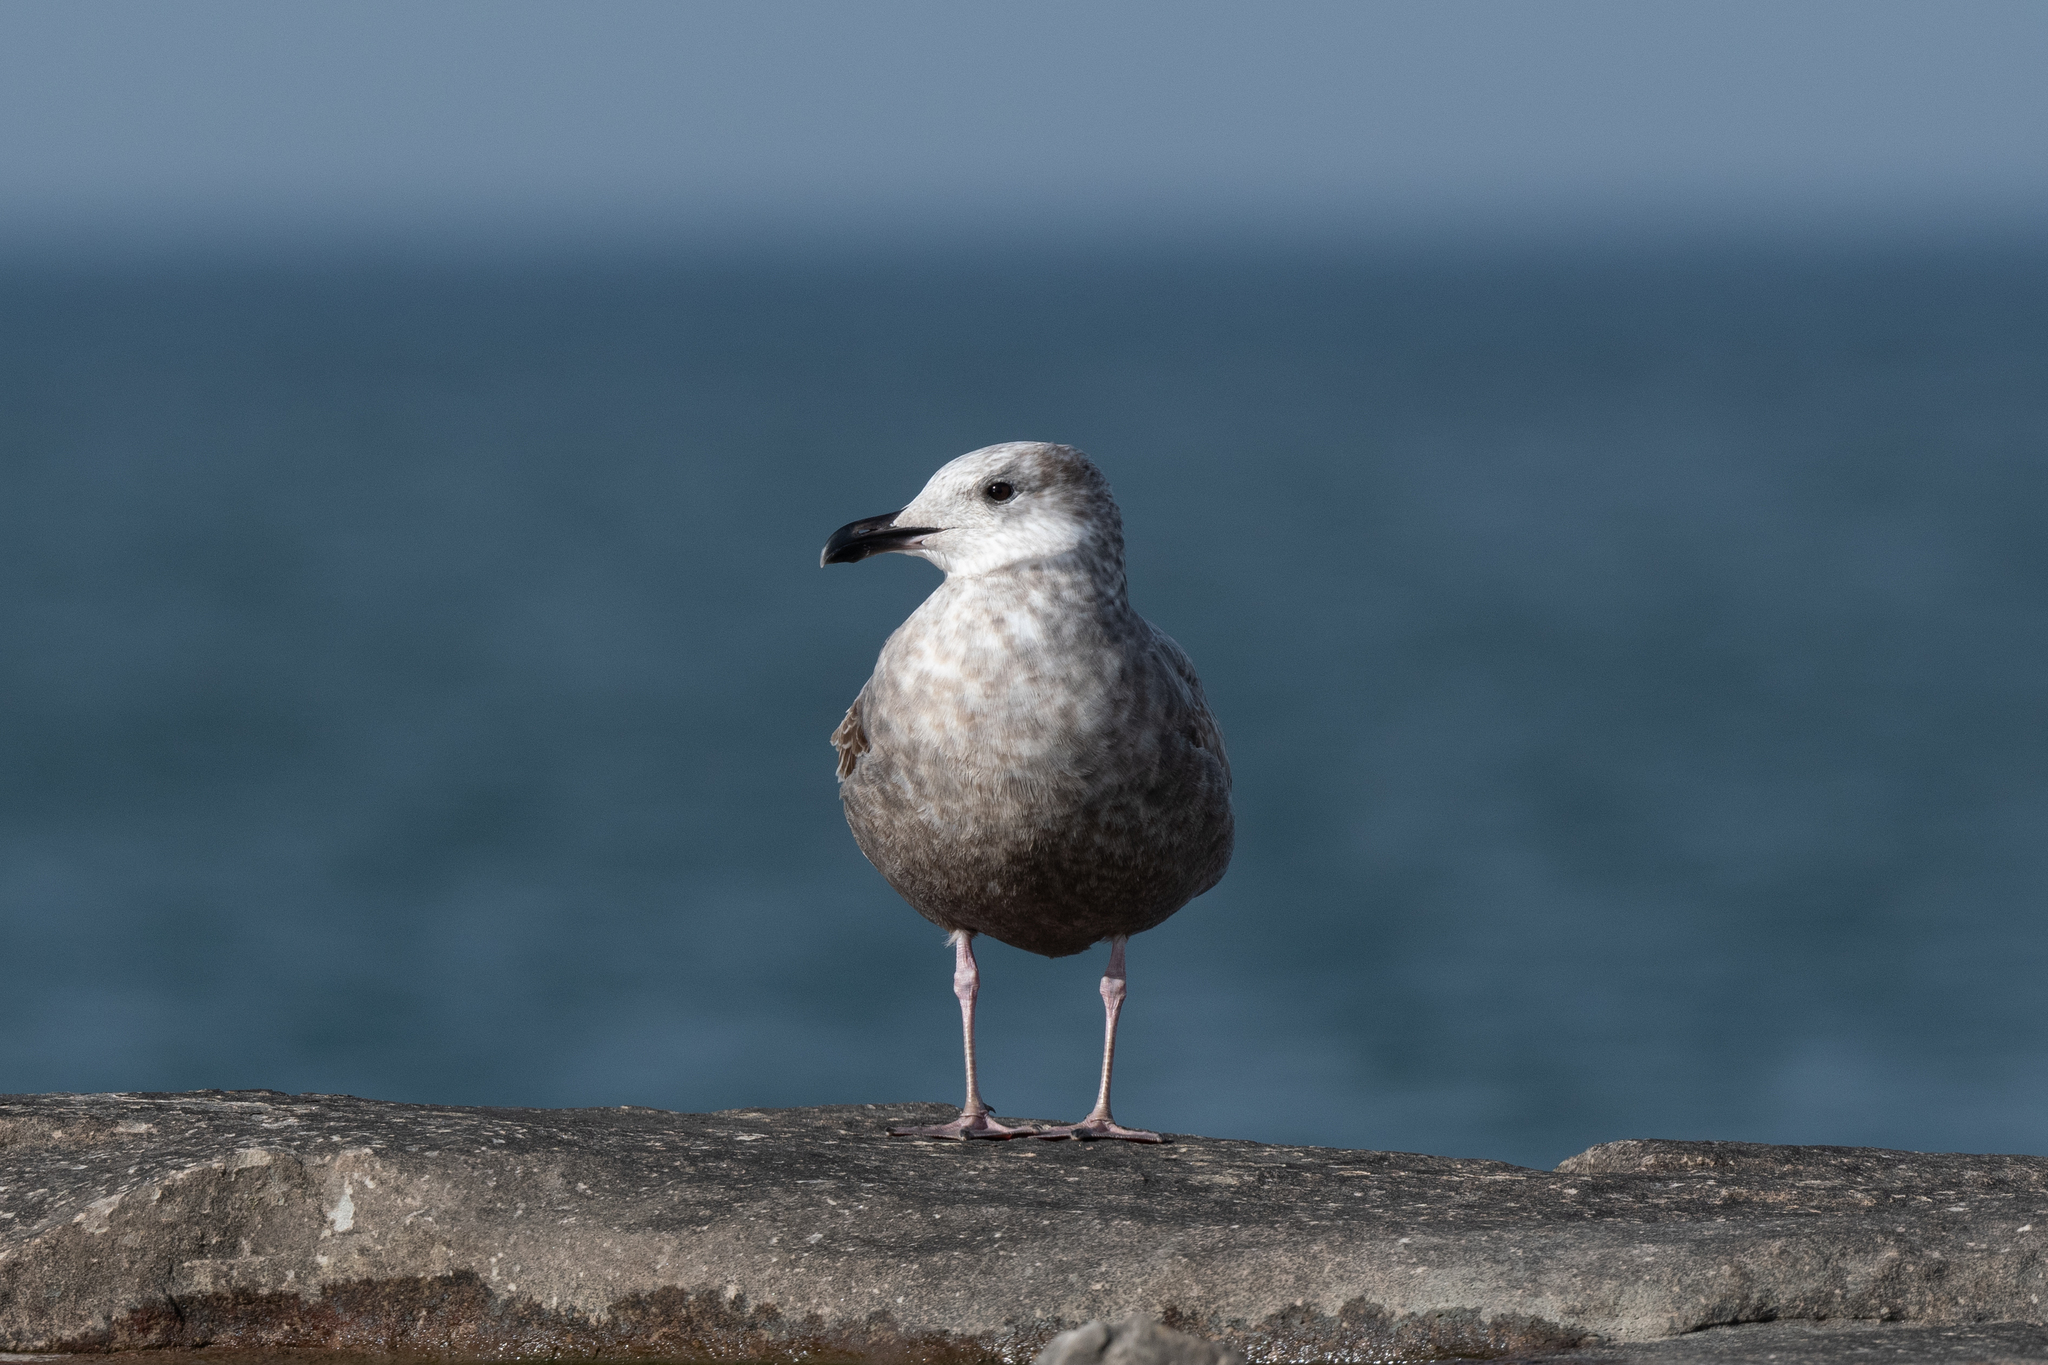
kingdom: Animalia
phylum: Chordata
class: Aves
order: Charadriiformes
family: Laridae
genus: Larus
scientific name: Larus argentatus
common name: Herring gull
